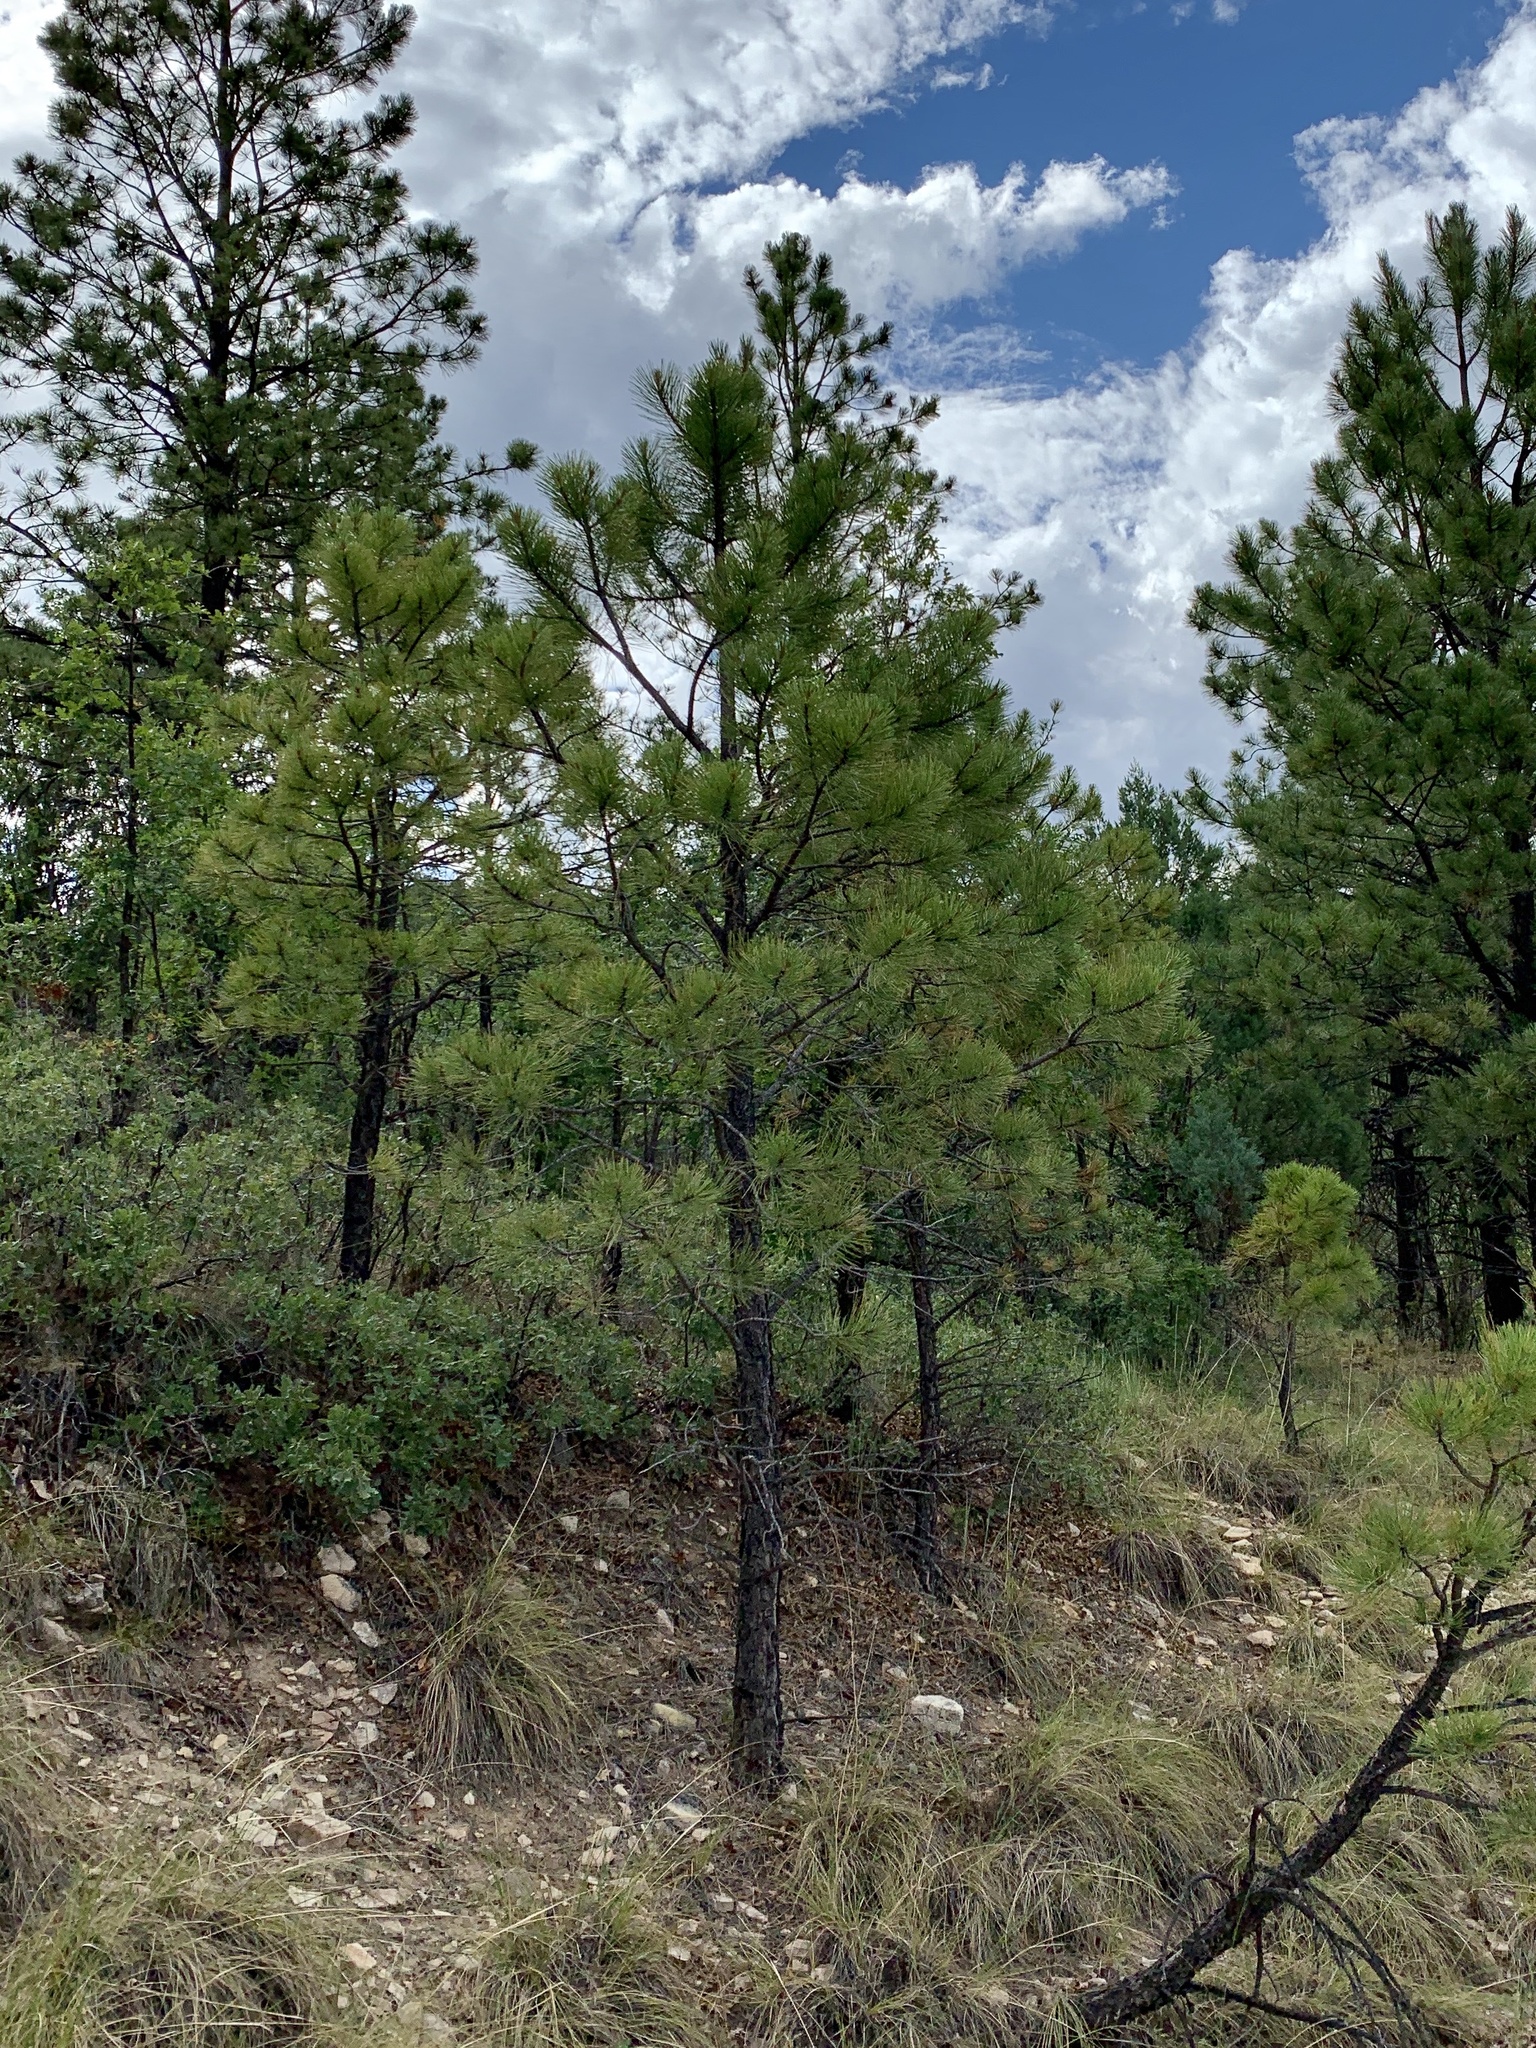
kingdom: Plantae
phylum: Tracheophyta
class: Pinopsida
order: Pinales
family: Pinaceae
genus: Pinus
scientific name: Pinus ponderosa
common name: Western yellow-pine
